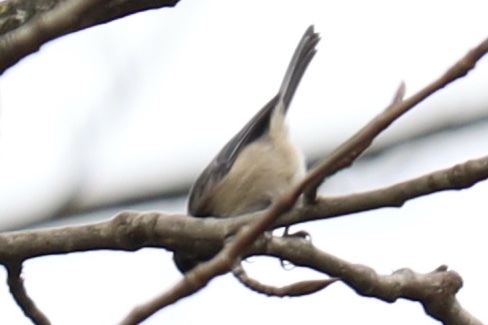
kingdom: Animalia
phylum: Chordata
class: Aves
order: Passeriformes
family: Paridae
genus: Poecile
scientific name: Poecile atricapillus
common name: Black-capped chickadee
